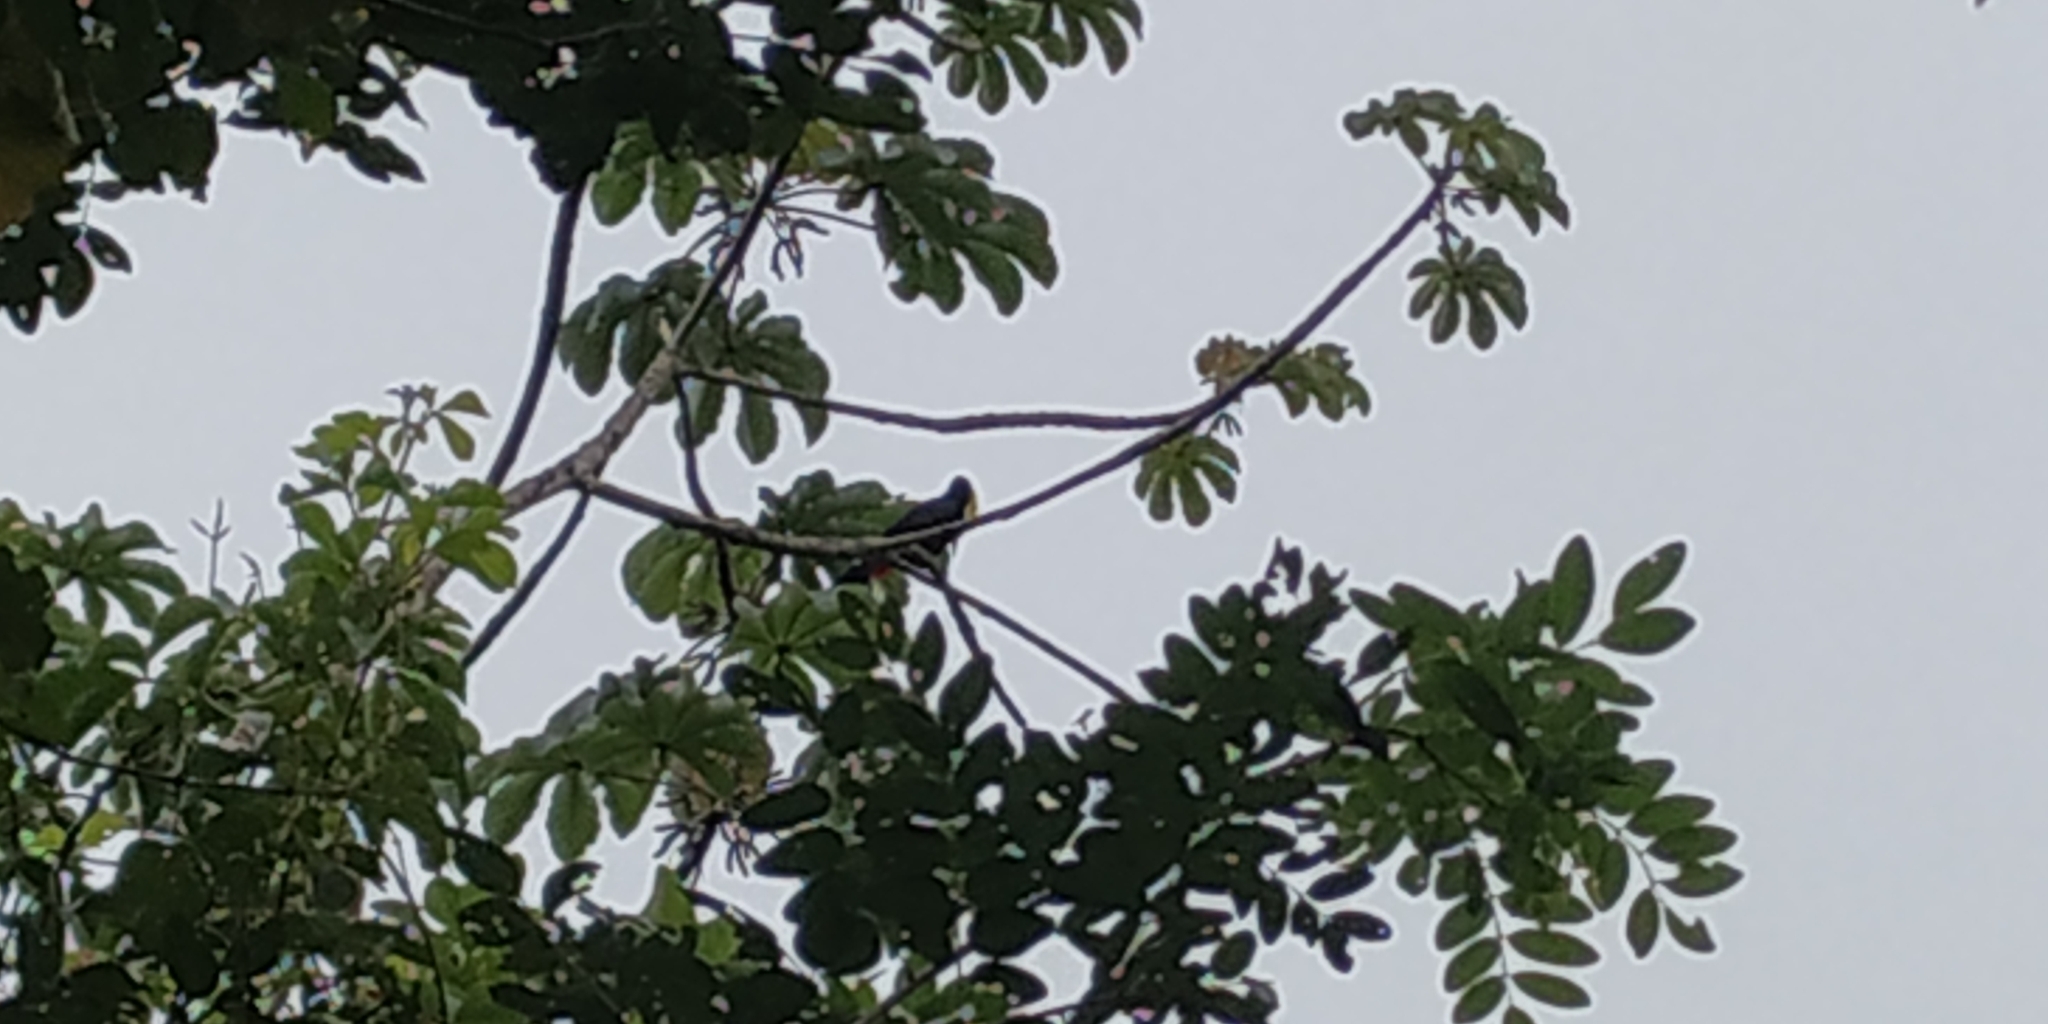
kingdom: Animalia
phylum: Chordata
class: Aves
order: Piciformes
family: Ramphastidae
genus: Ramphastos
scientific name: Ramphastos sulfuratus
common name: Keel-billed toucan
